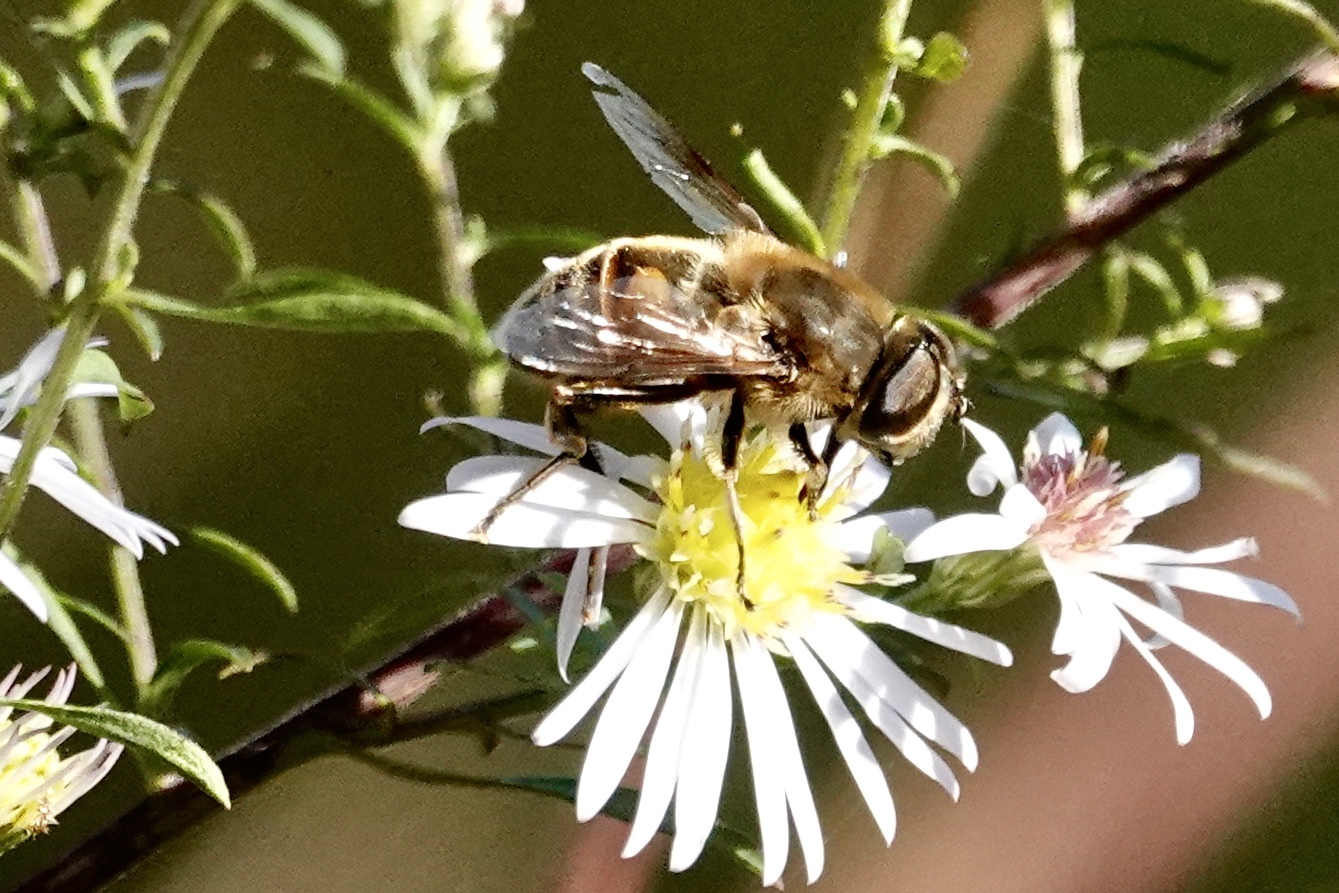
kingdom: Animalia
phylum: Arthropoda
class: Insecta
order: Diptera
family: Syrphidae
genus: Eristalis
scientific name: Eristalis tenax
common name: Drone fly
